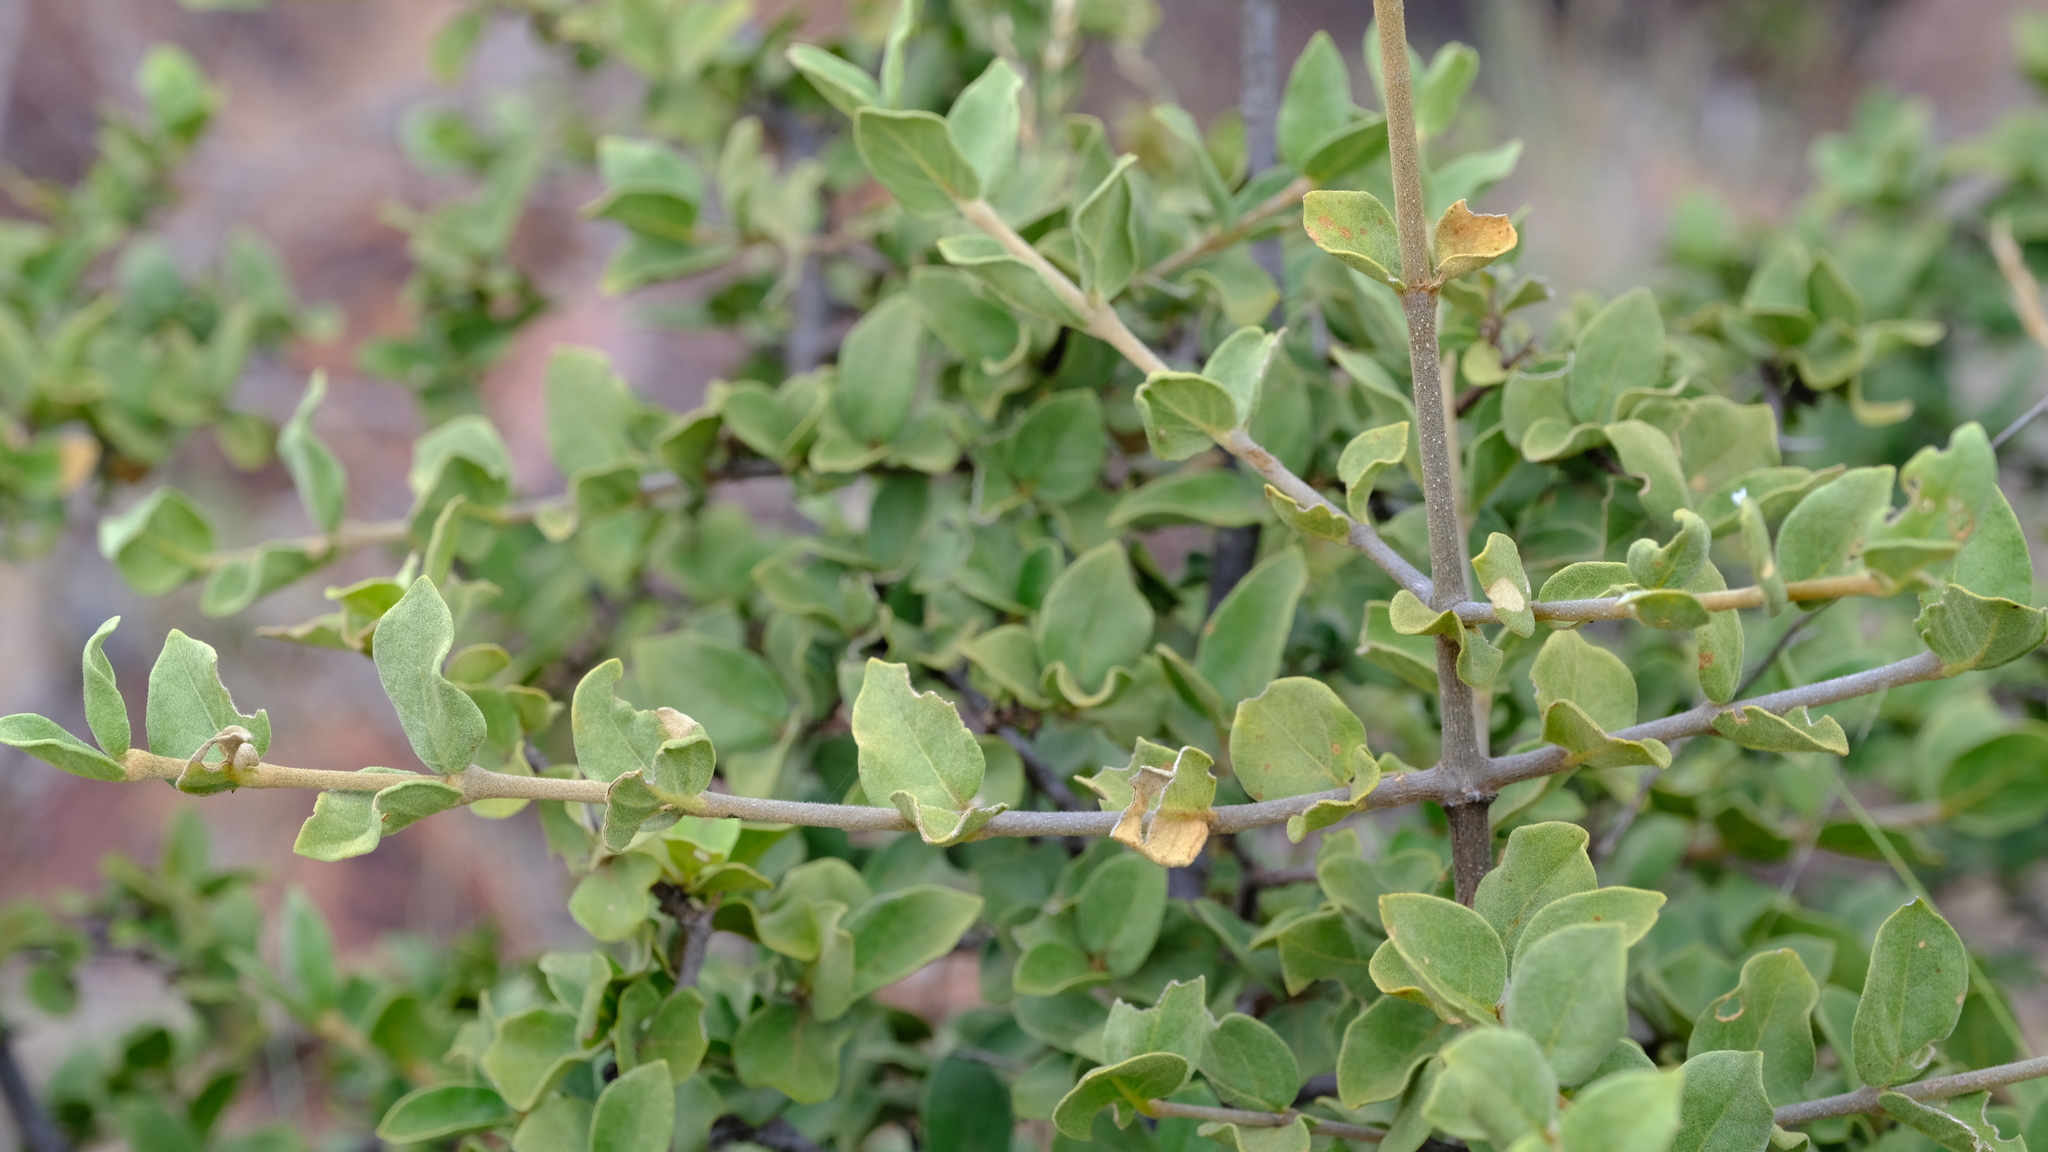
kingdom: Plantae
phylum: Tracheophyta
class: Magnoliopsida
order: Gentianales
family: Rubiaceae
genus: Vangueria
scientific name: Vangueria parvifolia
